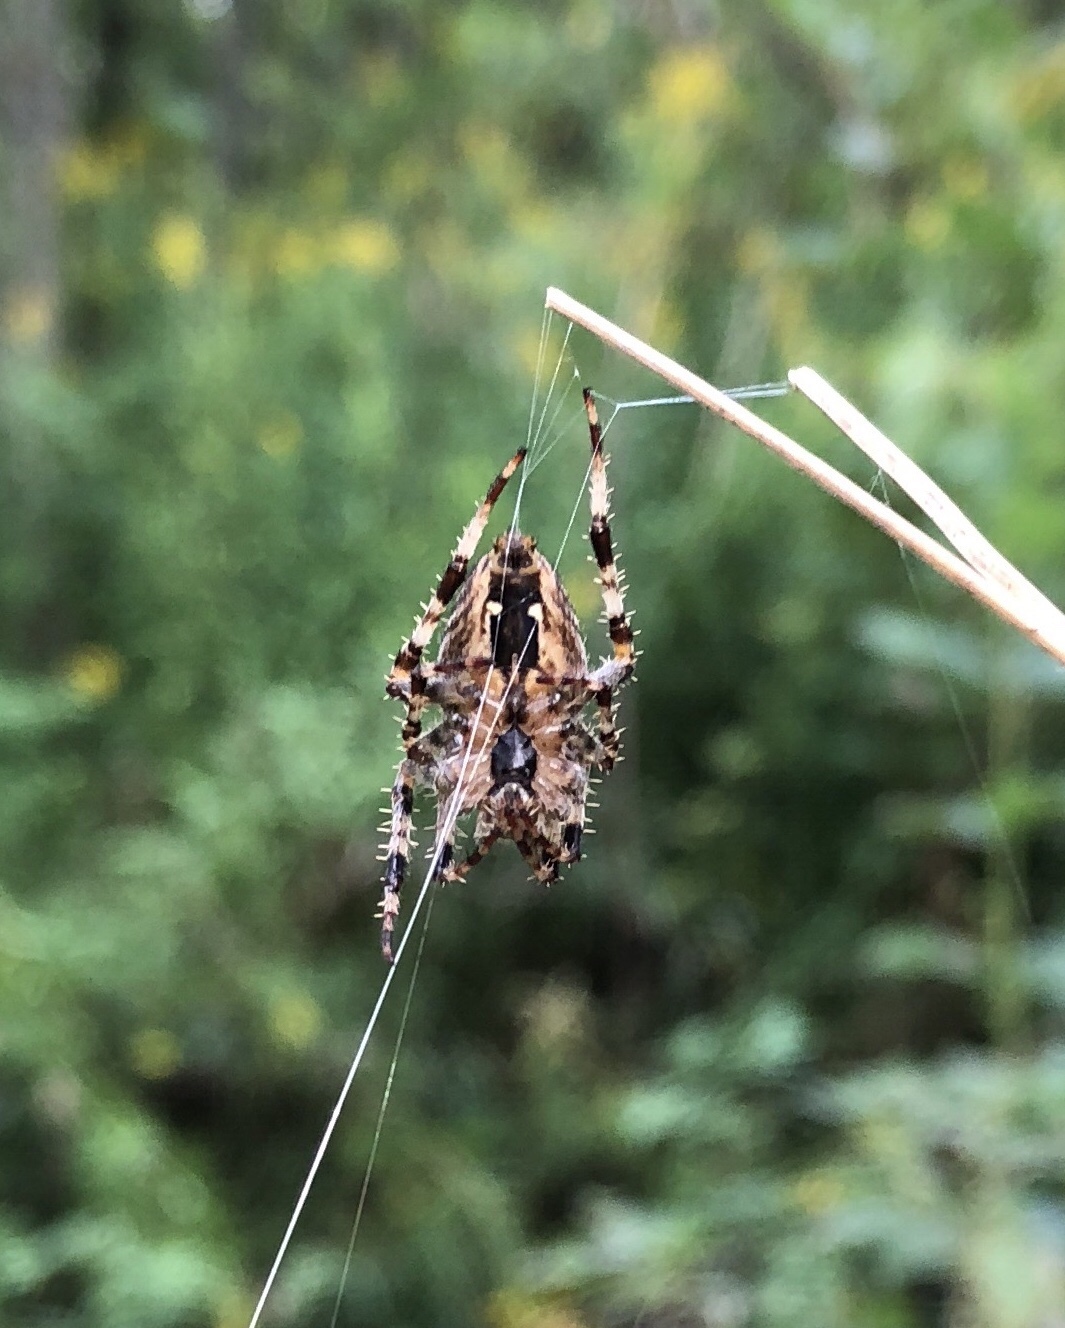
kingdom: Animalia
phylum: Arthropoda
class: Arachnida
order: Araneae
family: Araneidae
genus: Araneus
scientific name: Araneus diadematus
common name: Cross orbweaver
